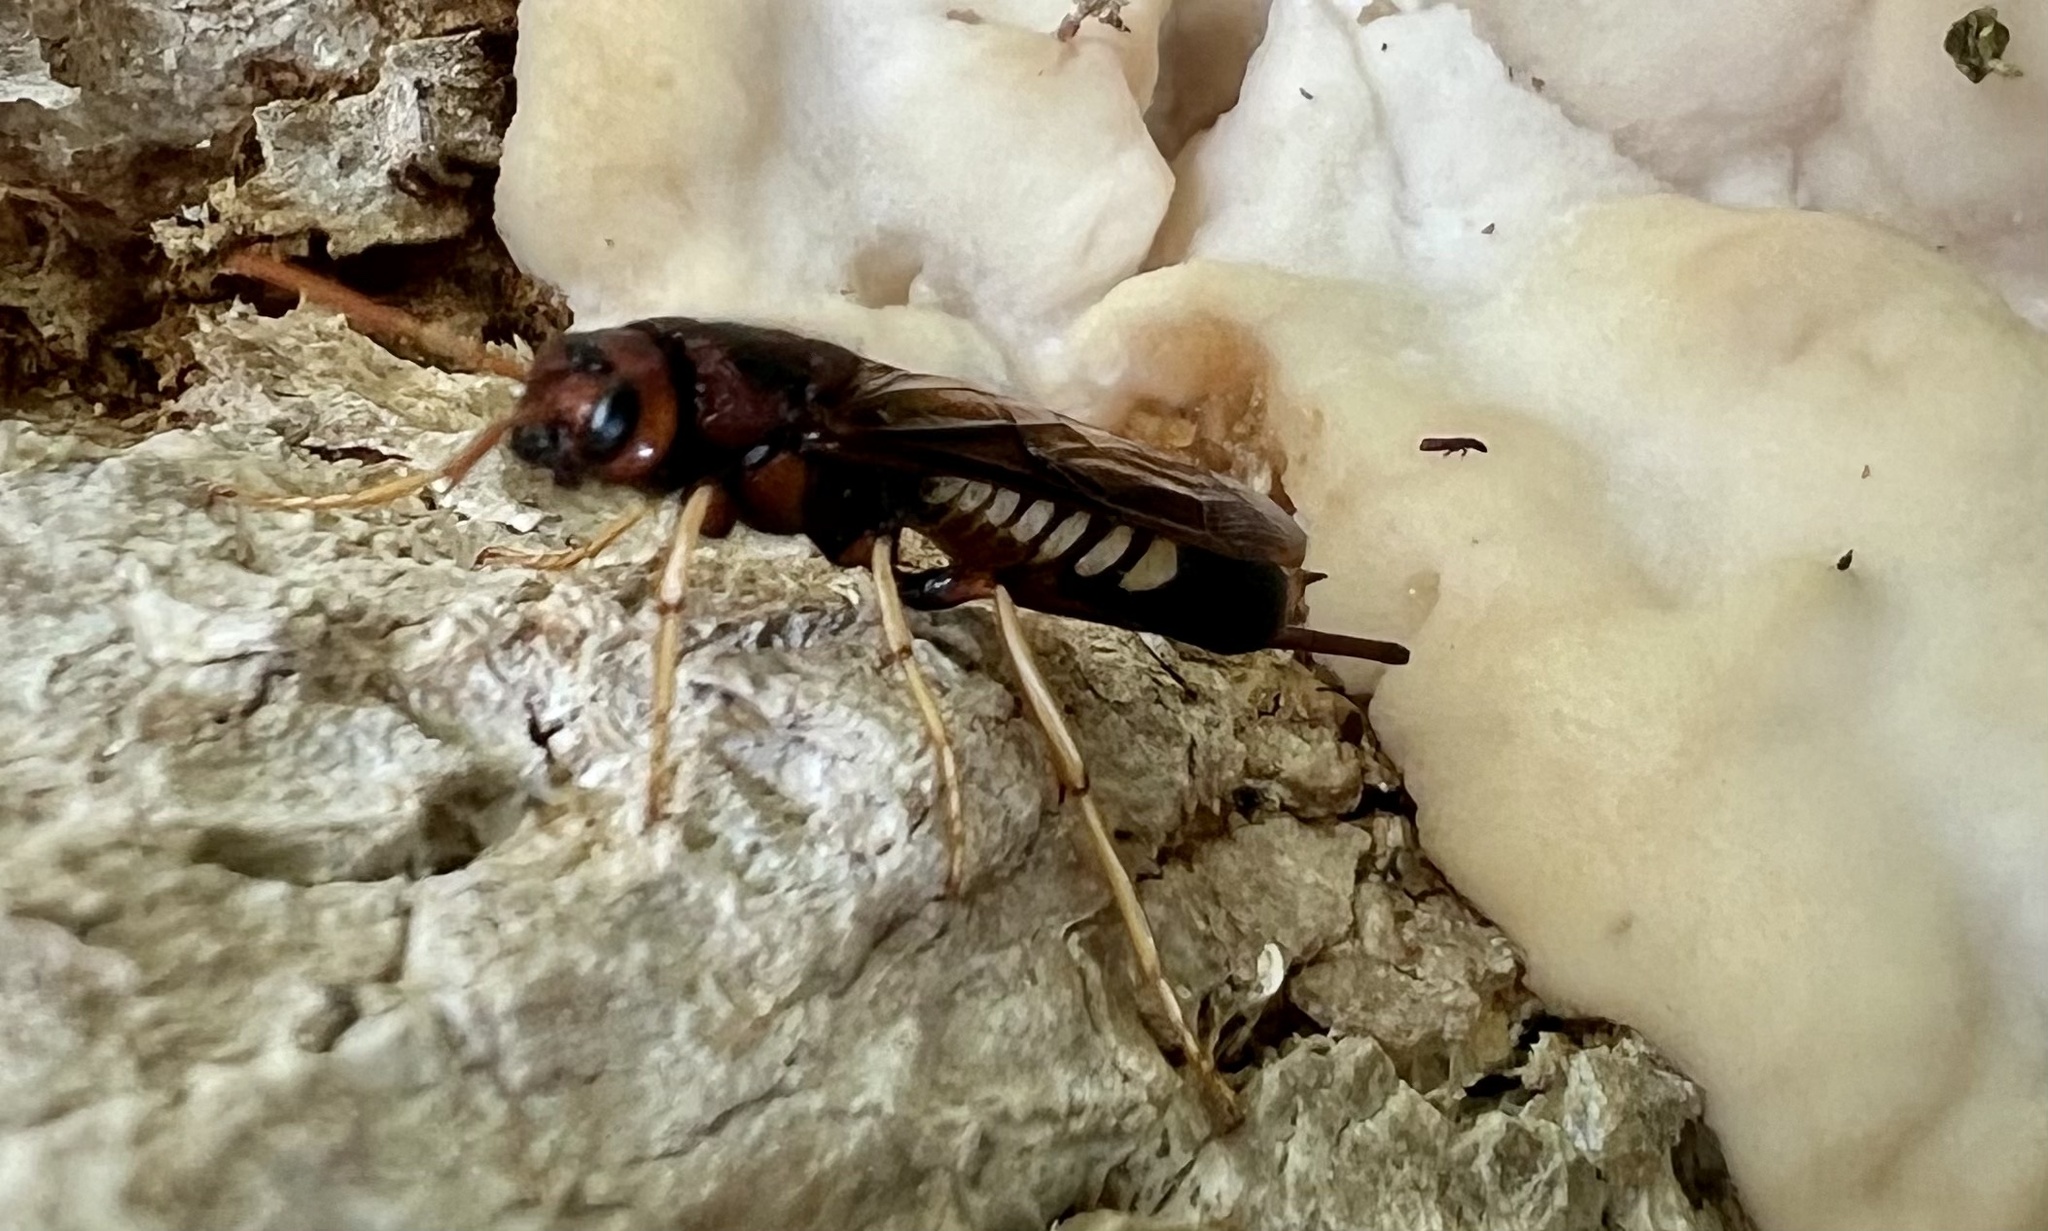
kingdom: Animalia
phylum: Arthropoda
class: Insecta
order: Hymenoptera
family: Siricidae
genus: Tremex
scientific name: Tremex columba
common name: Wasp
